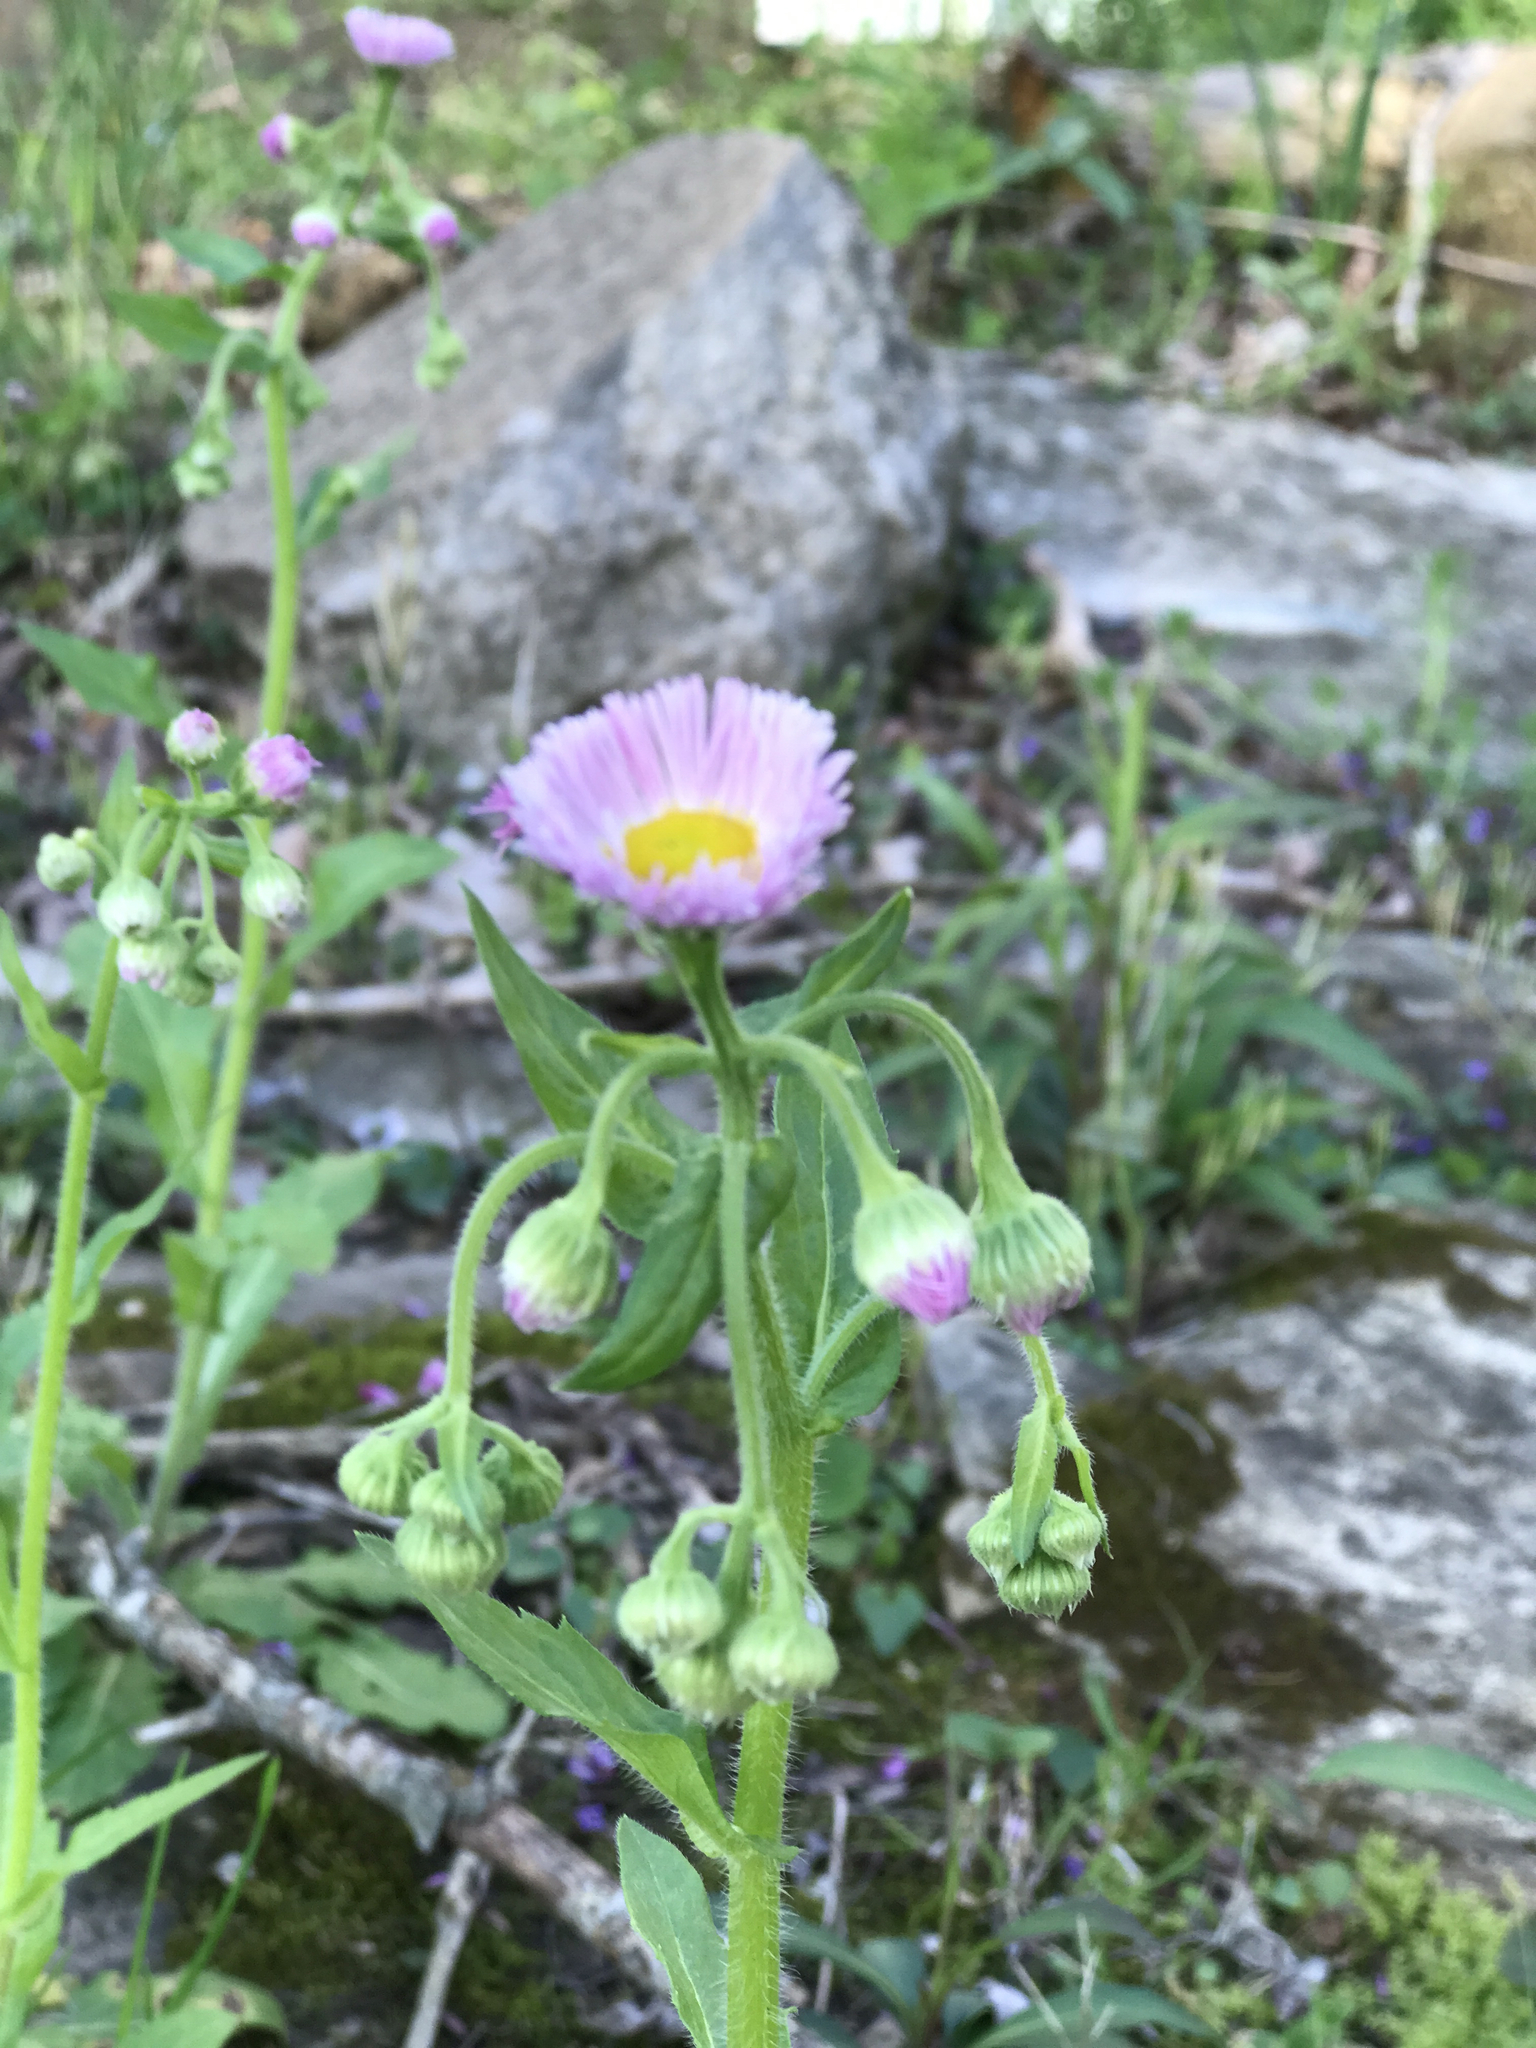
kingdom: Plantae
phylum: Tracheophyta
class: Magnoliopsida
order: Asterales
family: Asteraceae
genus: Erigeron
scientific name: Erigeron philadelphicus
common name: Robin's-plantain
